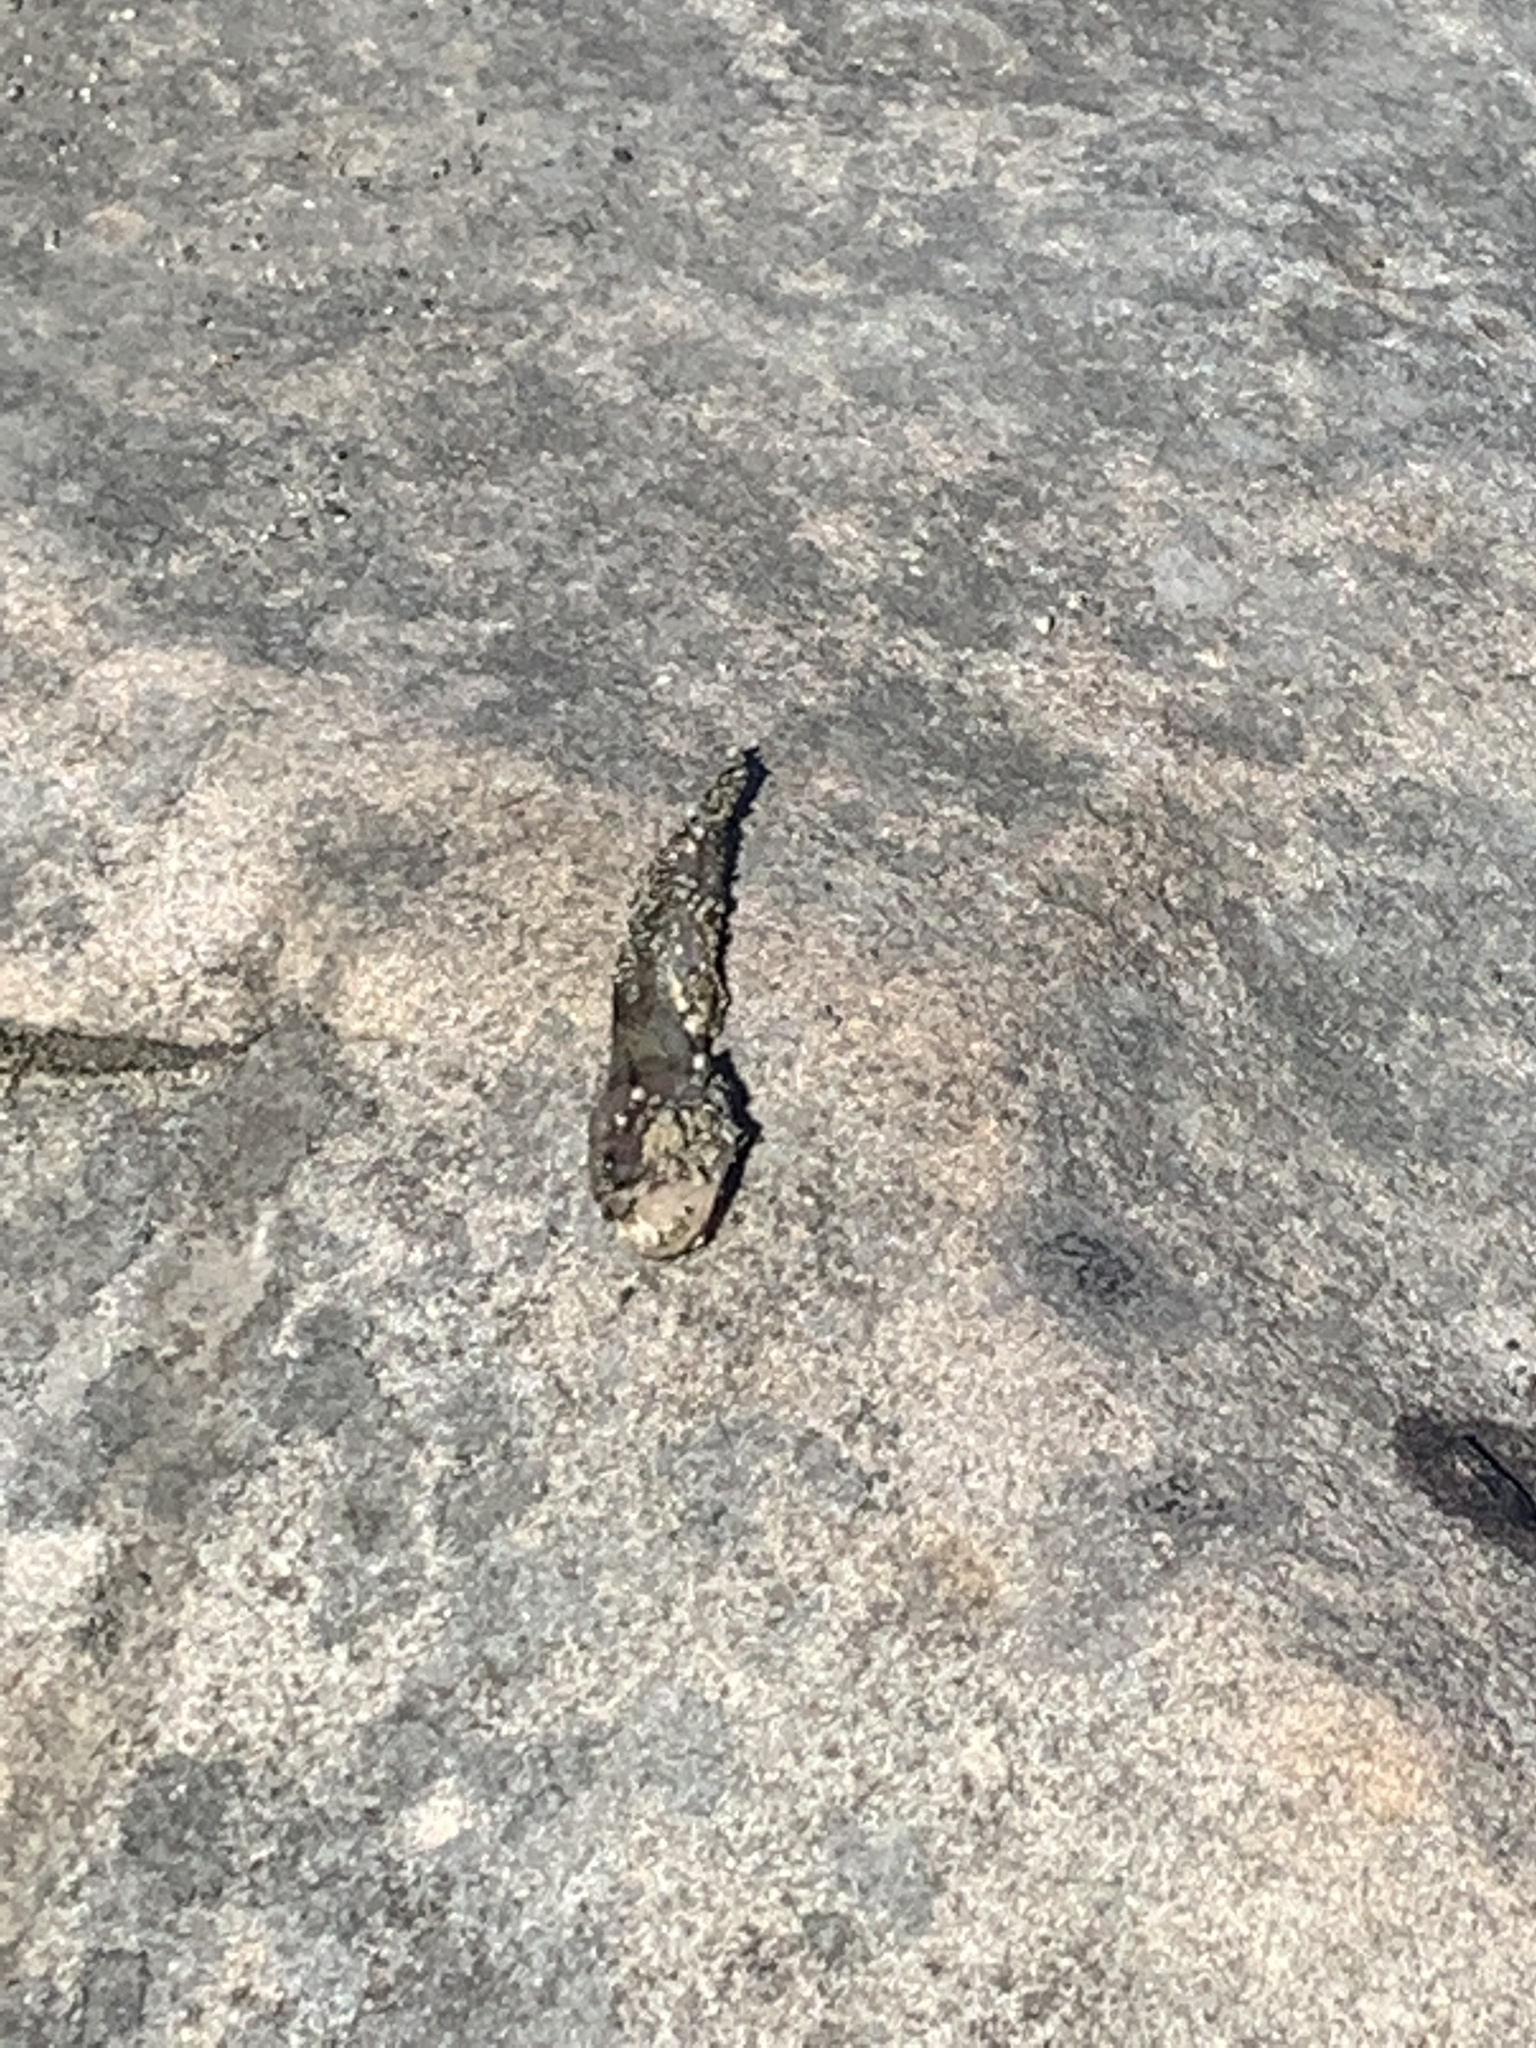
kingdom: Animalia
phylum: Chordata
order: Batrachoidiformes
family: Batrachoididae
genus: Porichthys
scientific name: Porichthys notatus
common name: Plainfin midshipman
